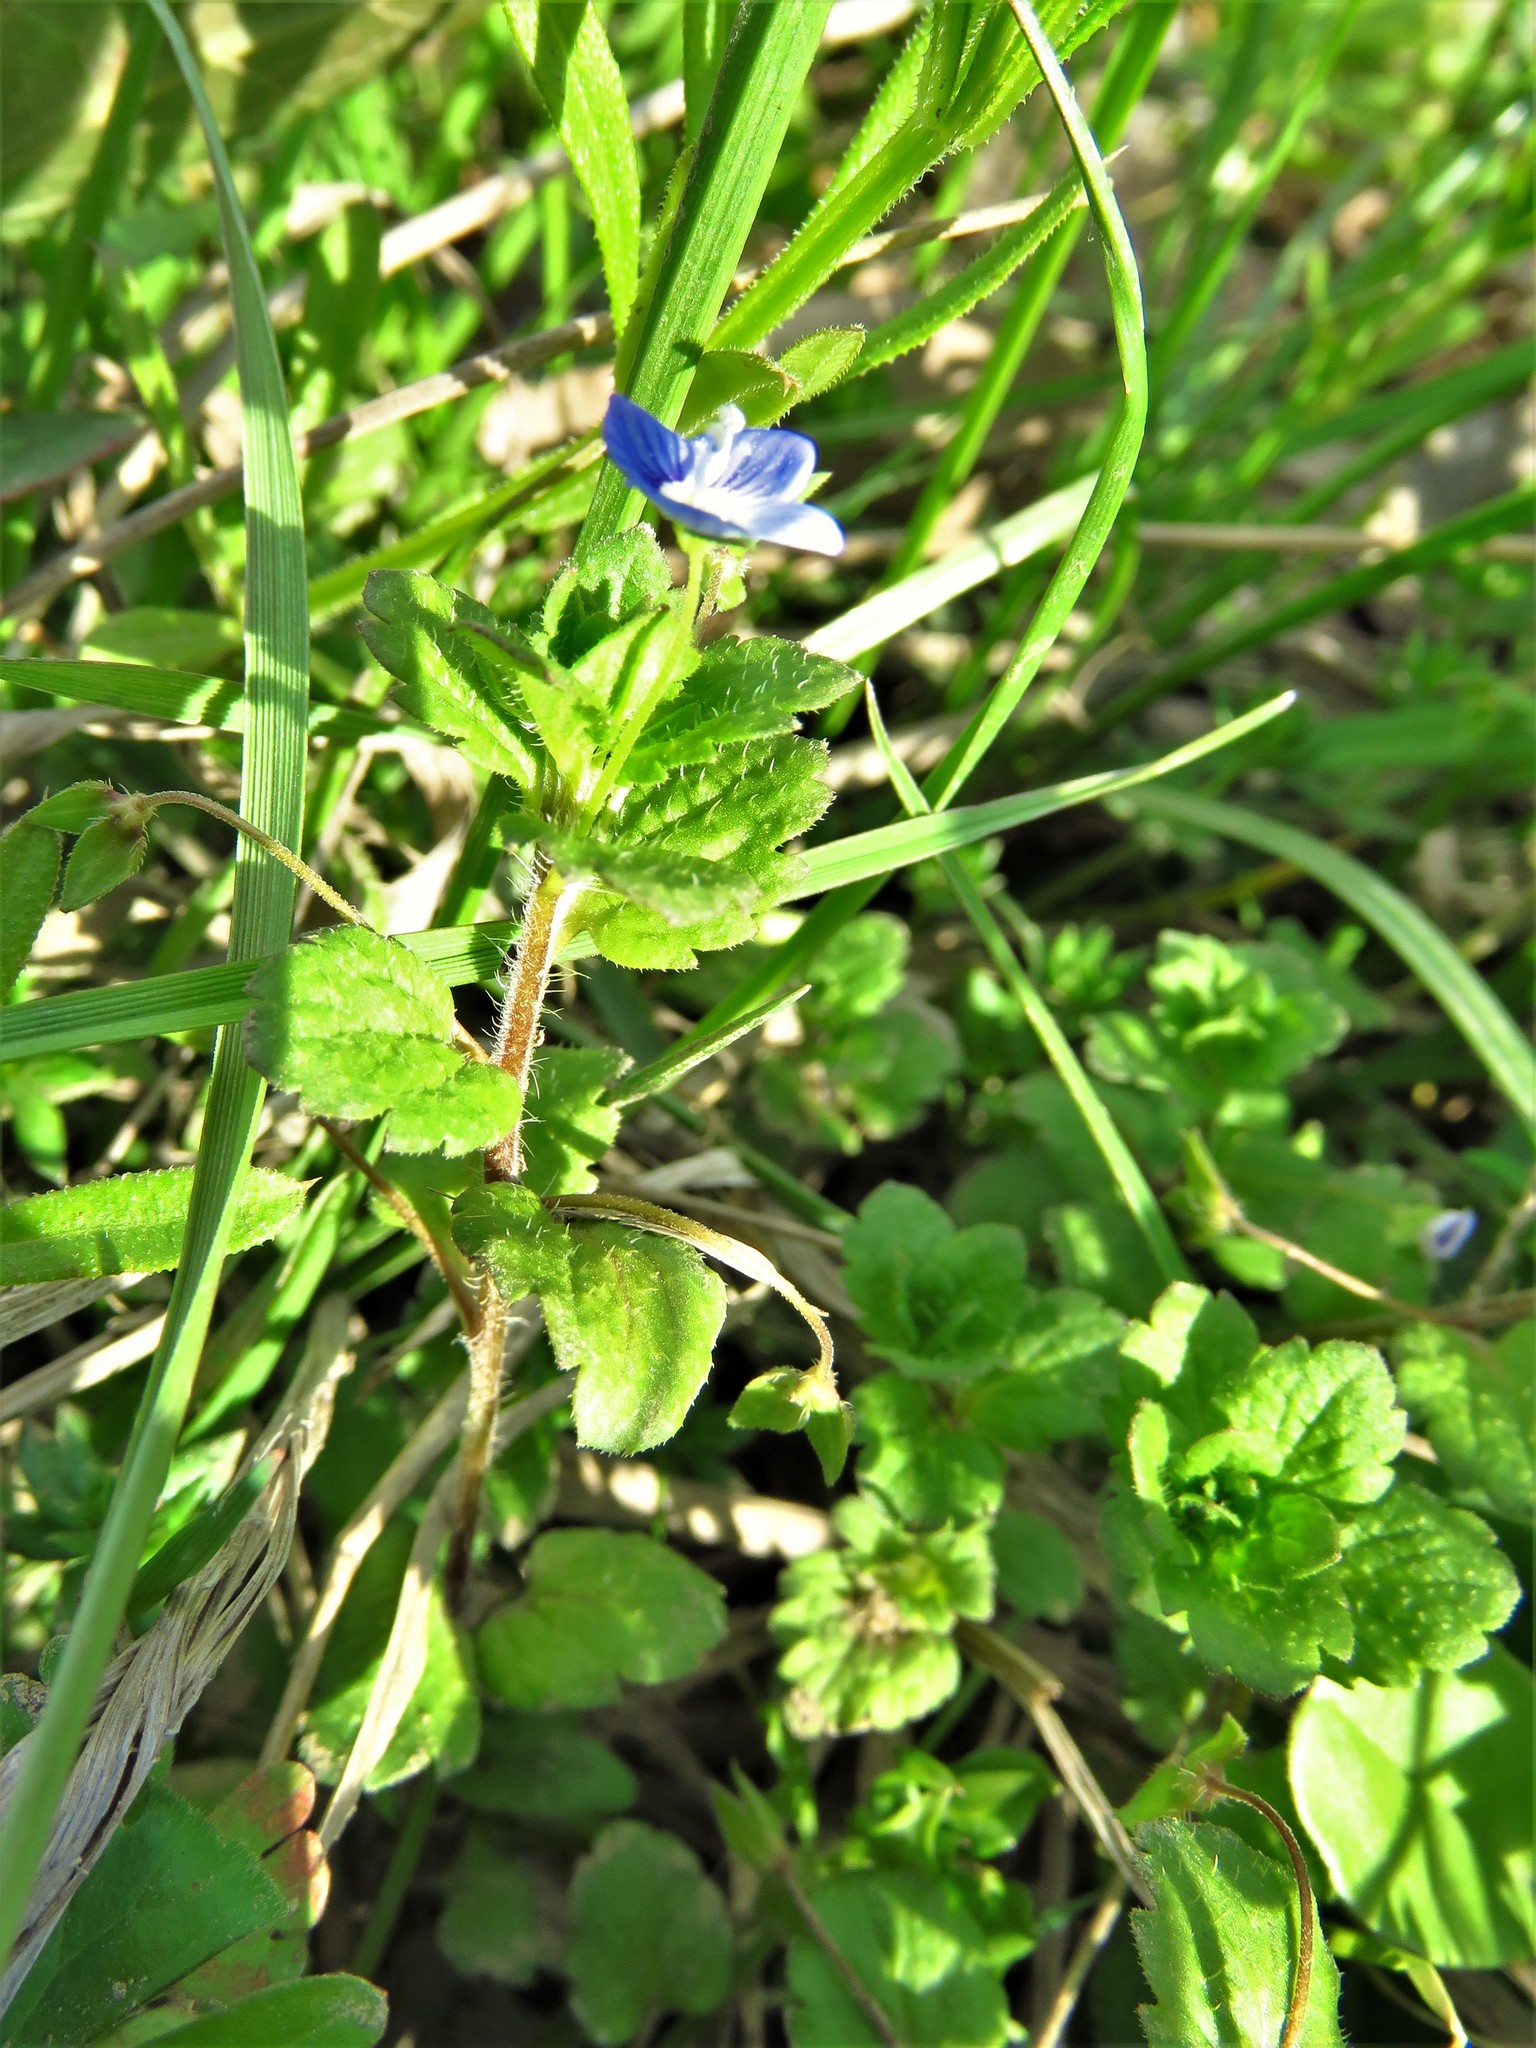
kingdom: Plantae
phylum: Tracheophyta
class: Magnoliopsida
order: Lamiales
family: Plantaginaceae
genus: Veronica
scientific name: Veronica persica
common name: Common field-speedwell
